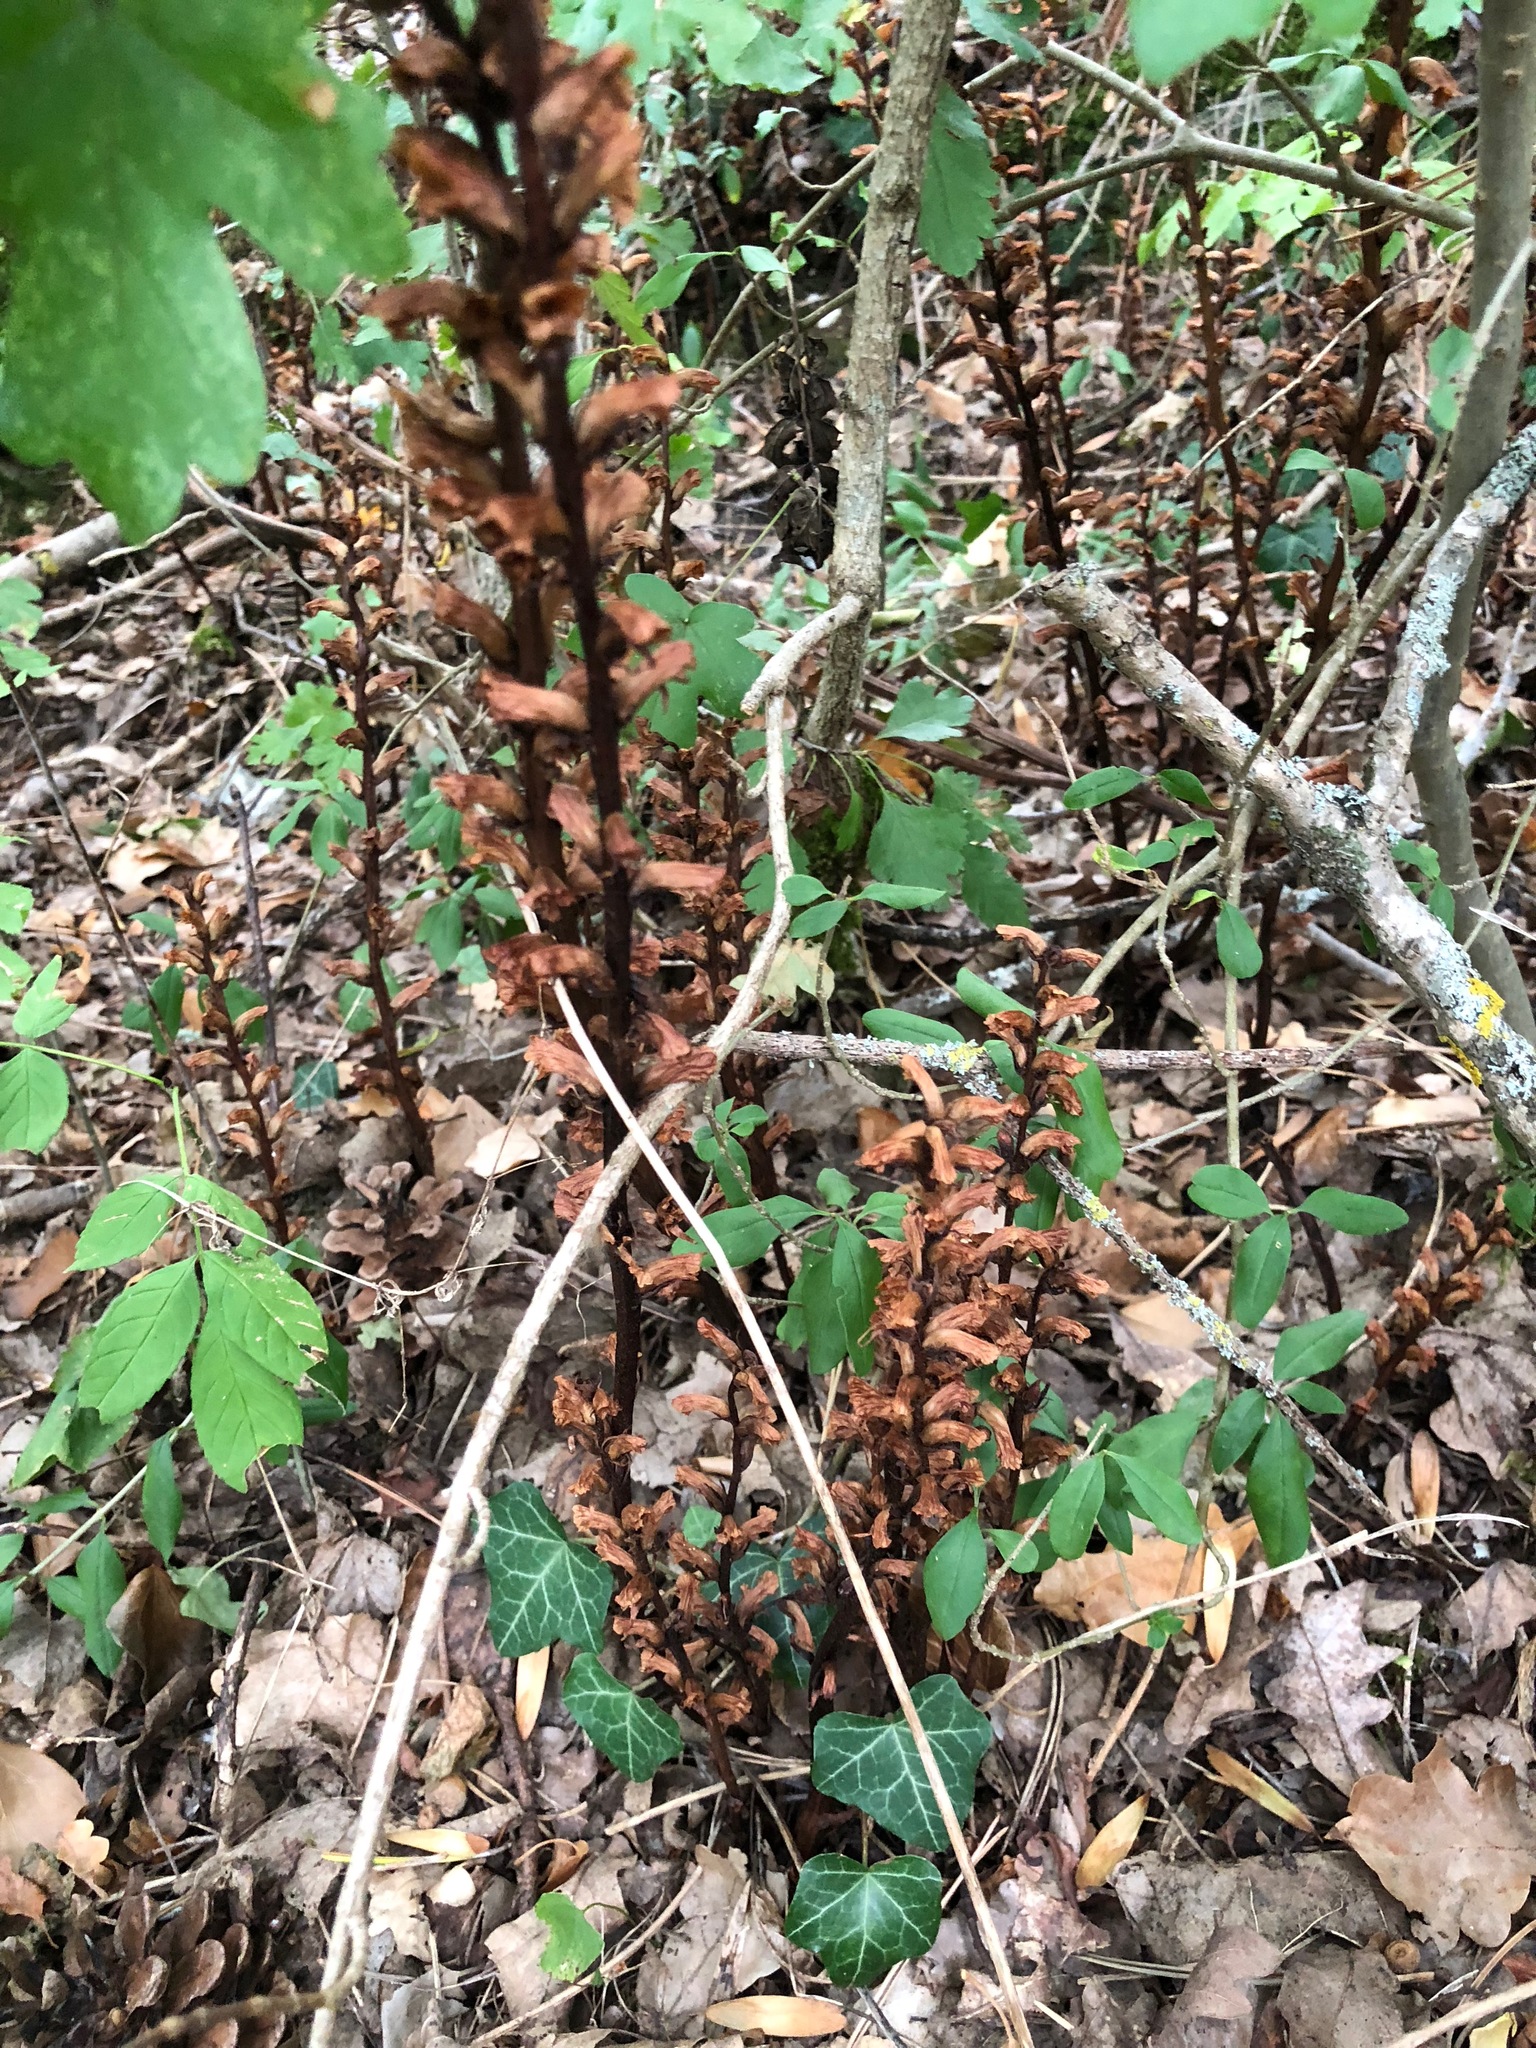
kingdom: Plantae
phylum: Tracheophyta
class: Magnoliopsida
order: Lamiales
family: Orobanchaceae
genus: Orobanche
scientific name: Orobanche hederae
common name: Ivy broomrape
